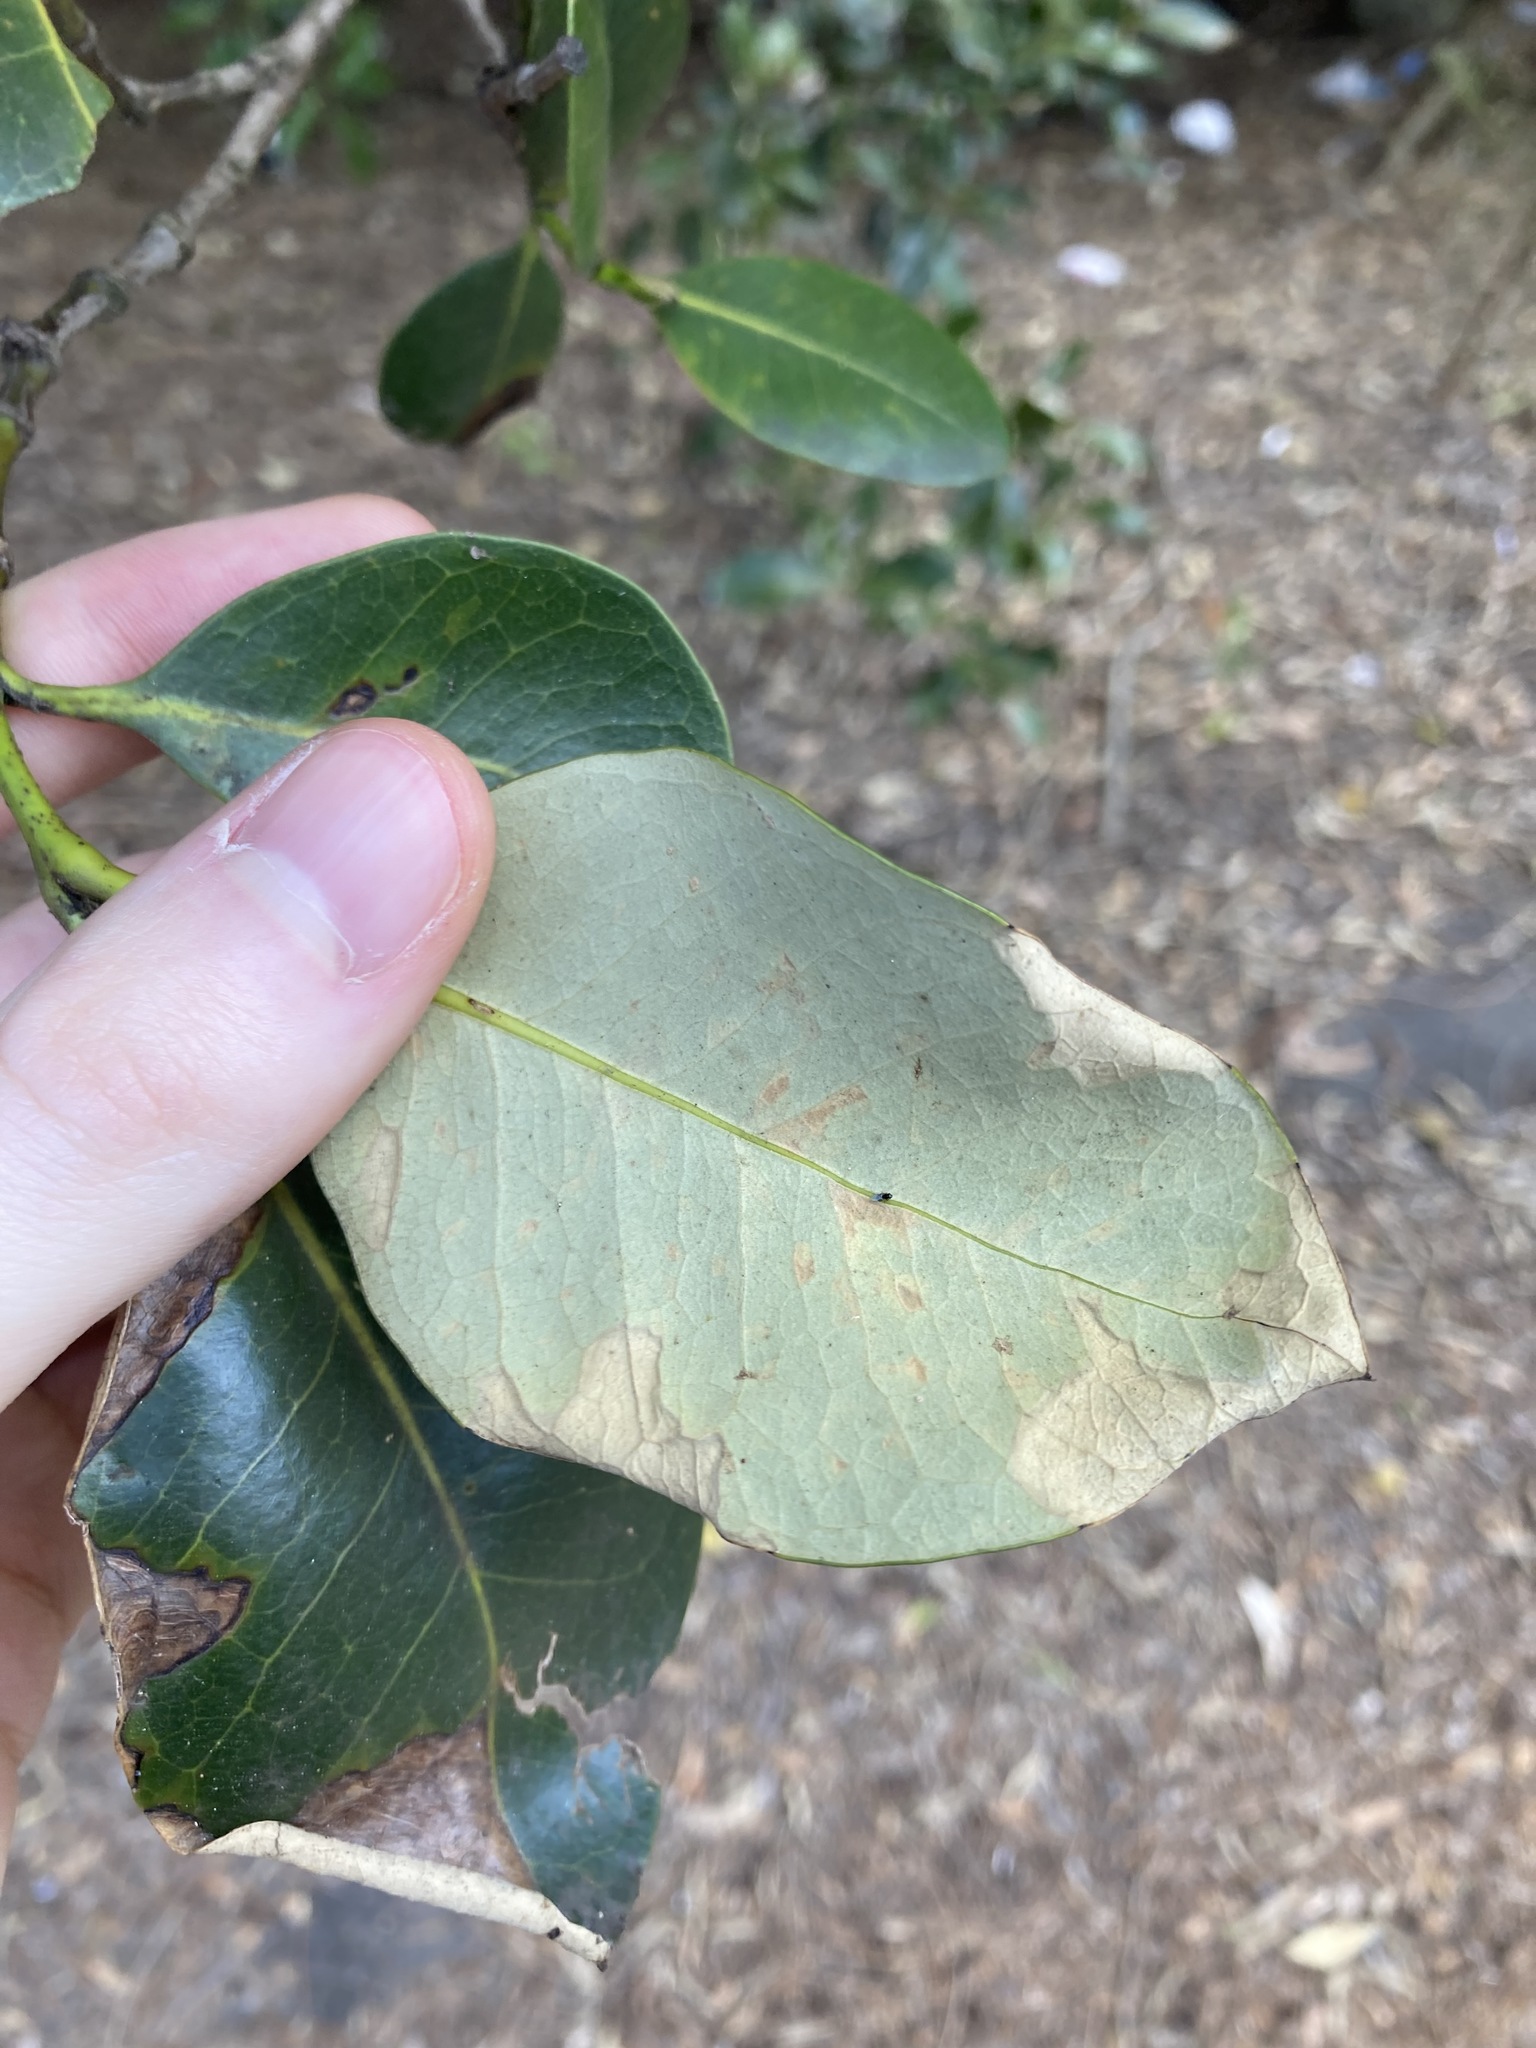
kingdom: Plantae
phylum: Tracheophyta
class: Magnoliopsida
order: Lamiales
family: Acanthaceae
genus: Avicennia
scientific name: Avicennia marina
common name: Gray mangrove
